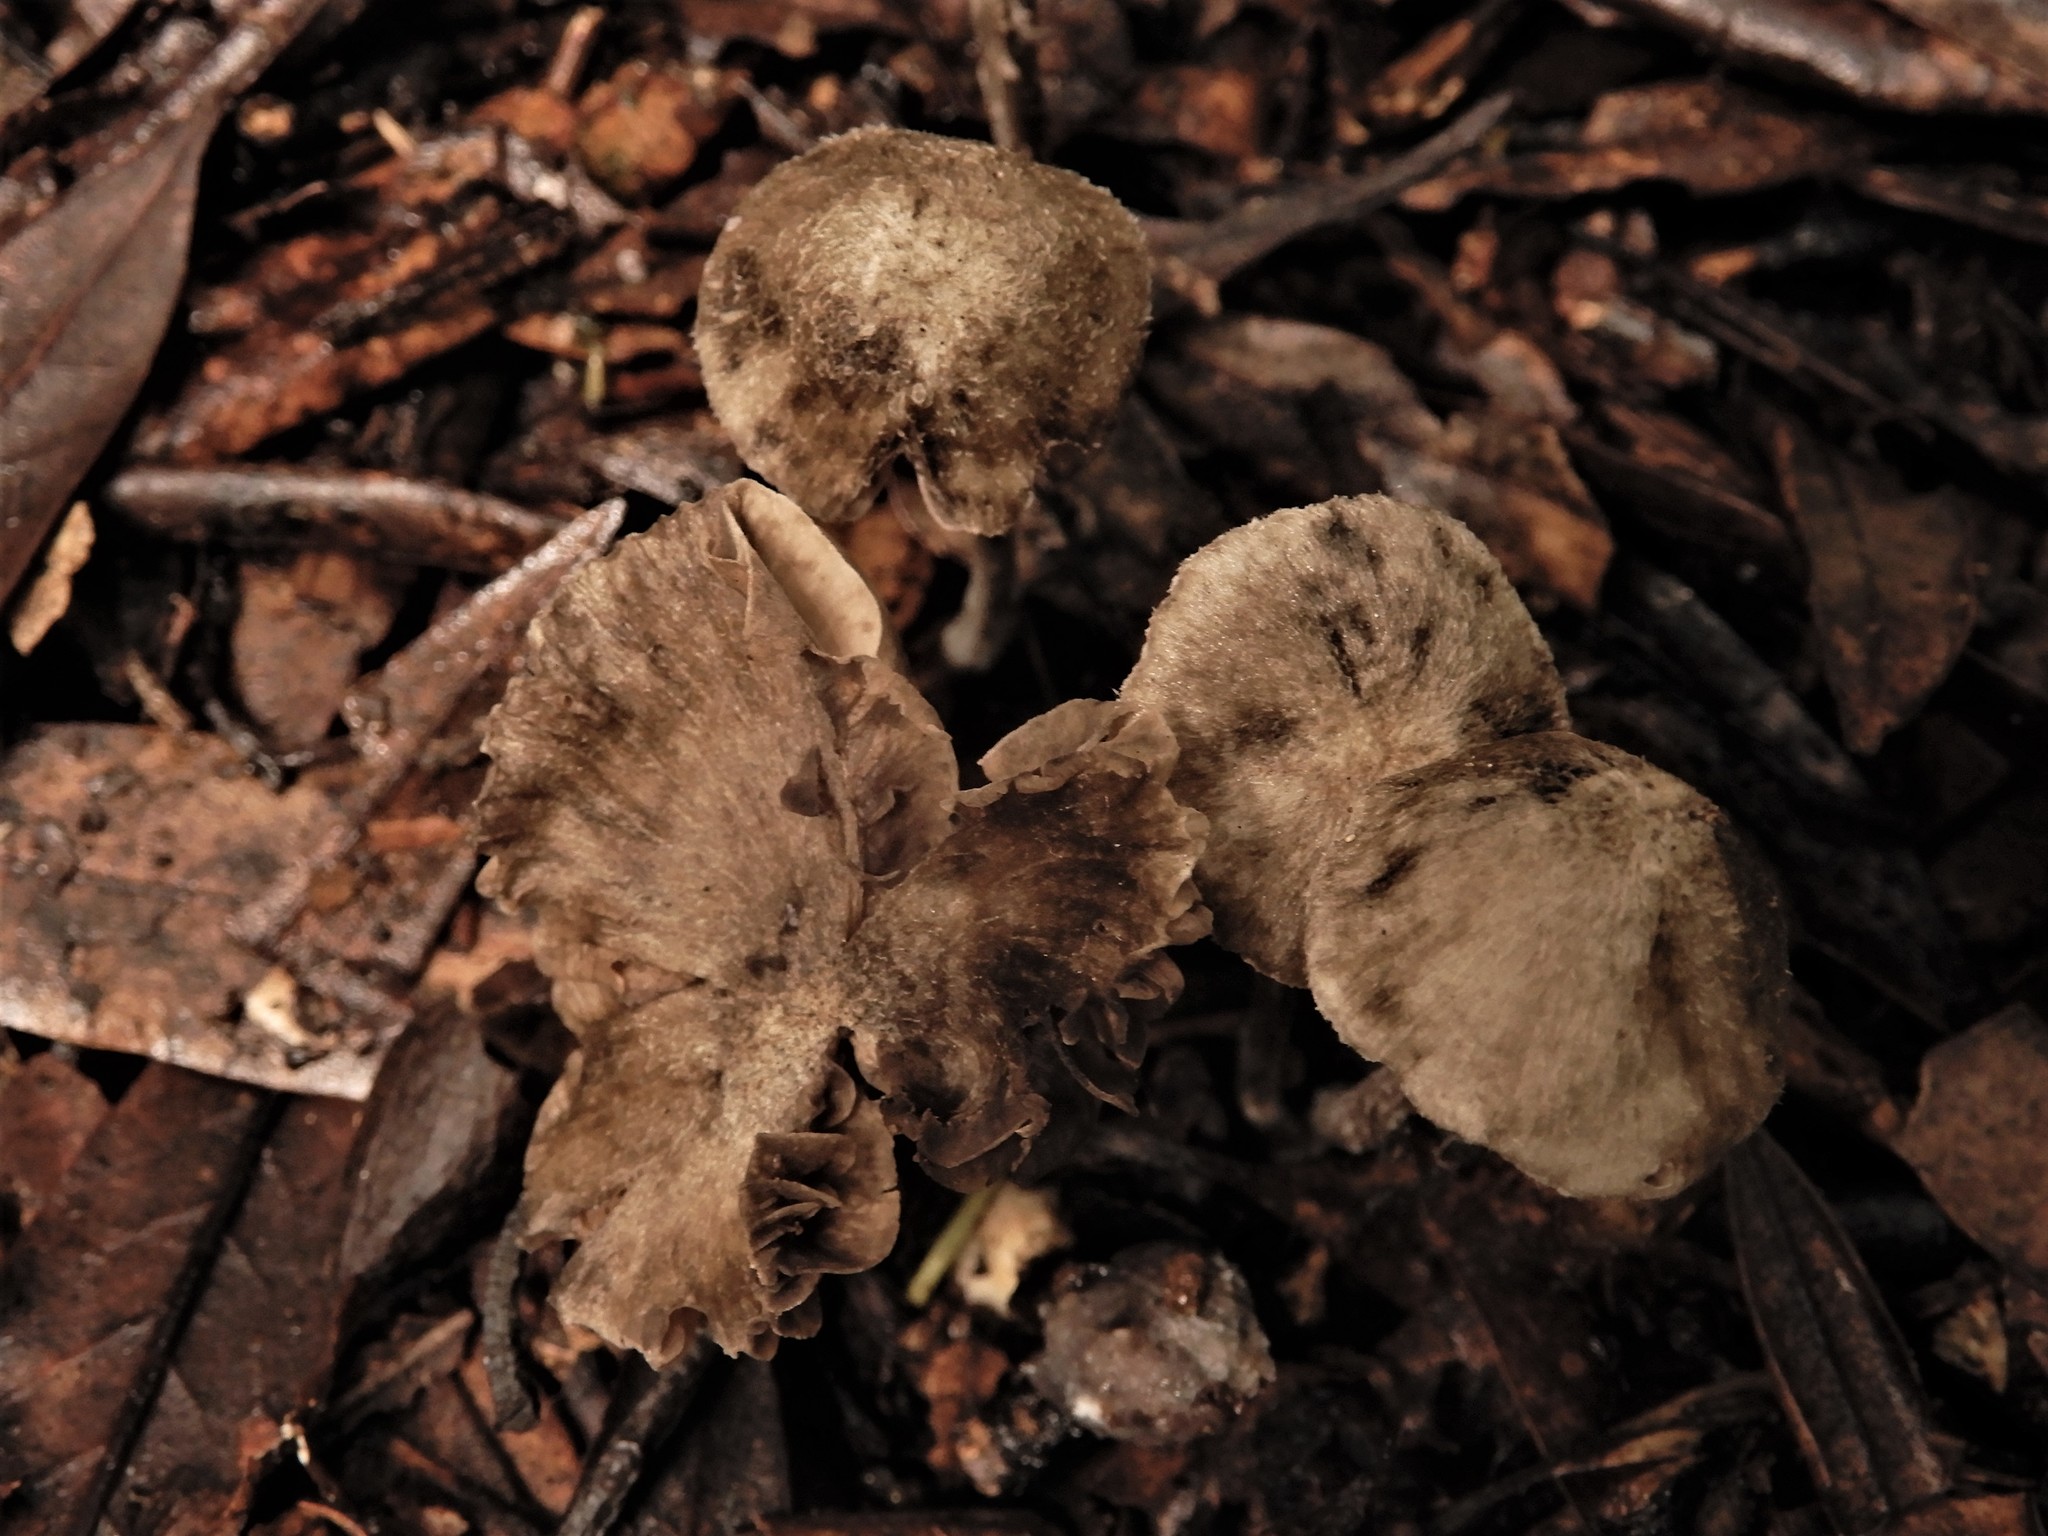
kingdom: Fungi
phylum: Basidiomycota
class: Agaricomycetes
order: Agaricales
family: Entolomataceae
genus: Entoloma
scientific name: Entoloma farinosum
